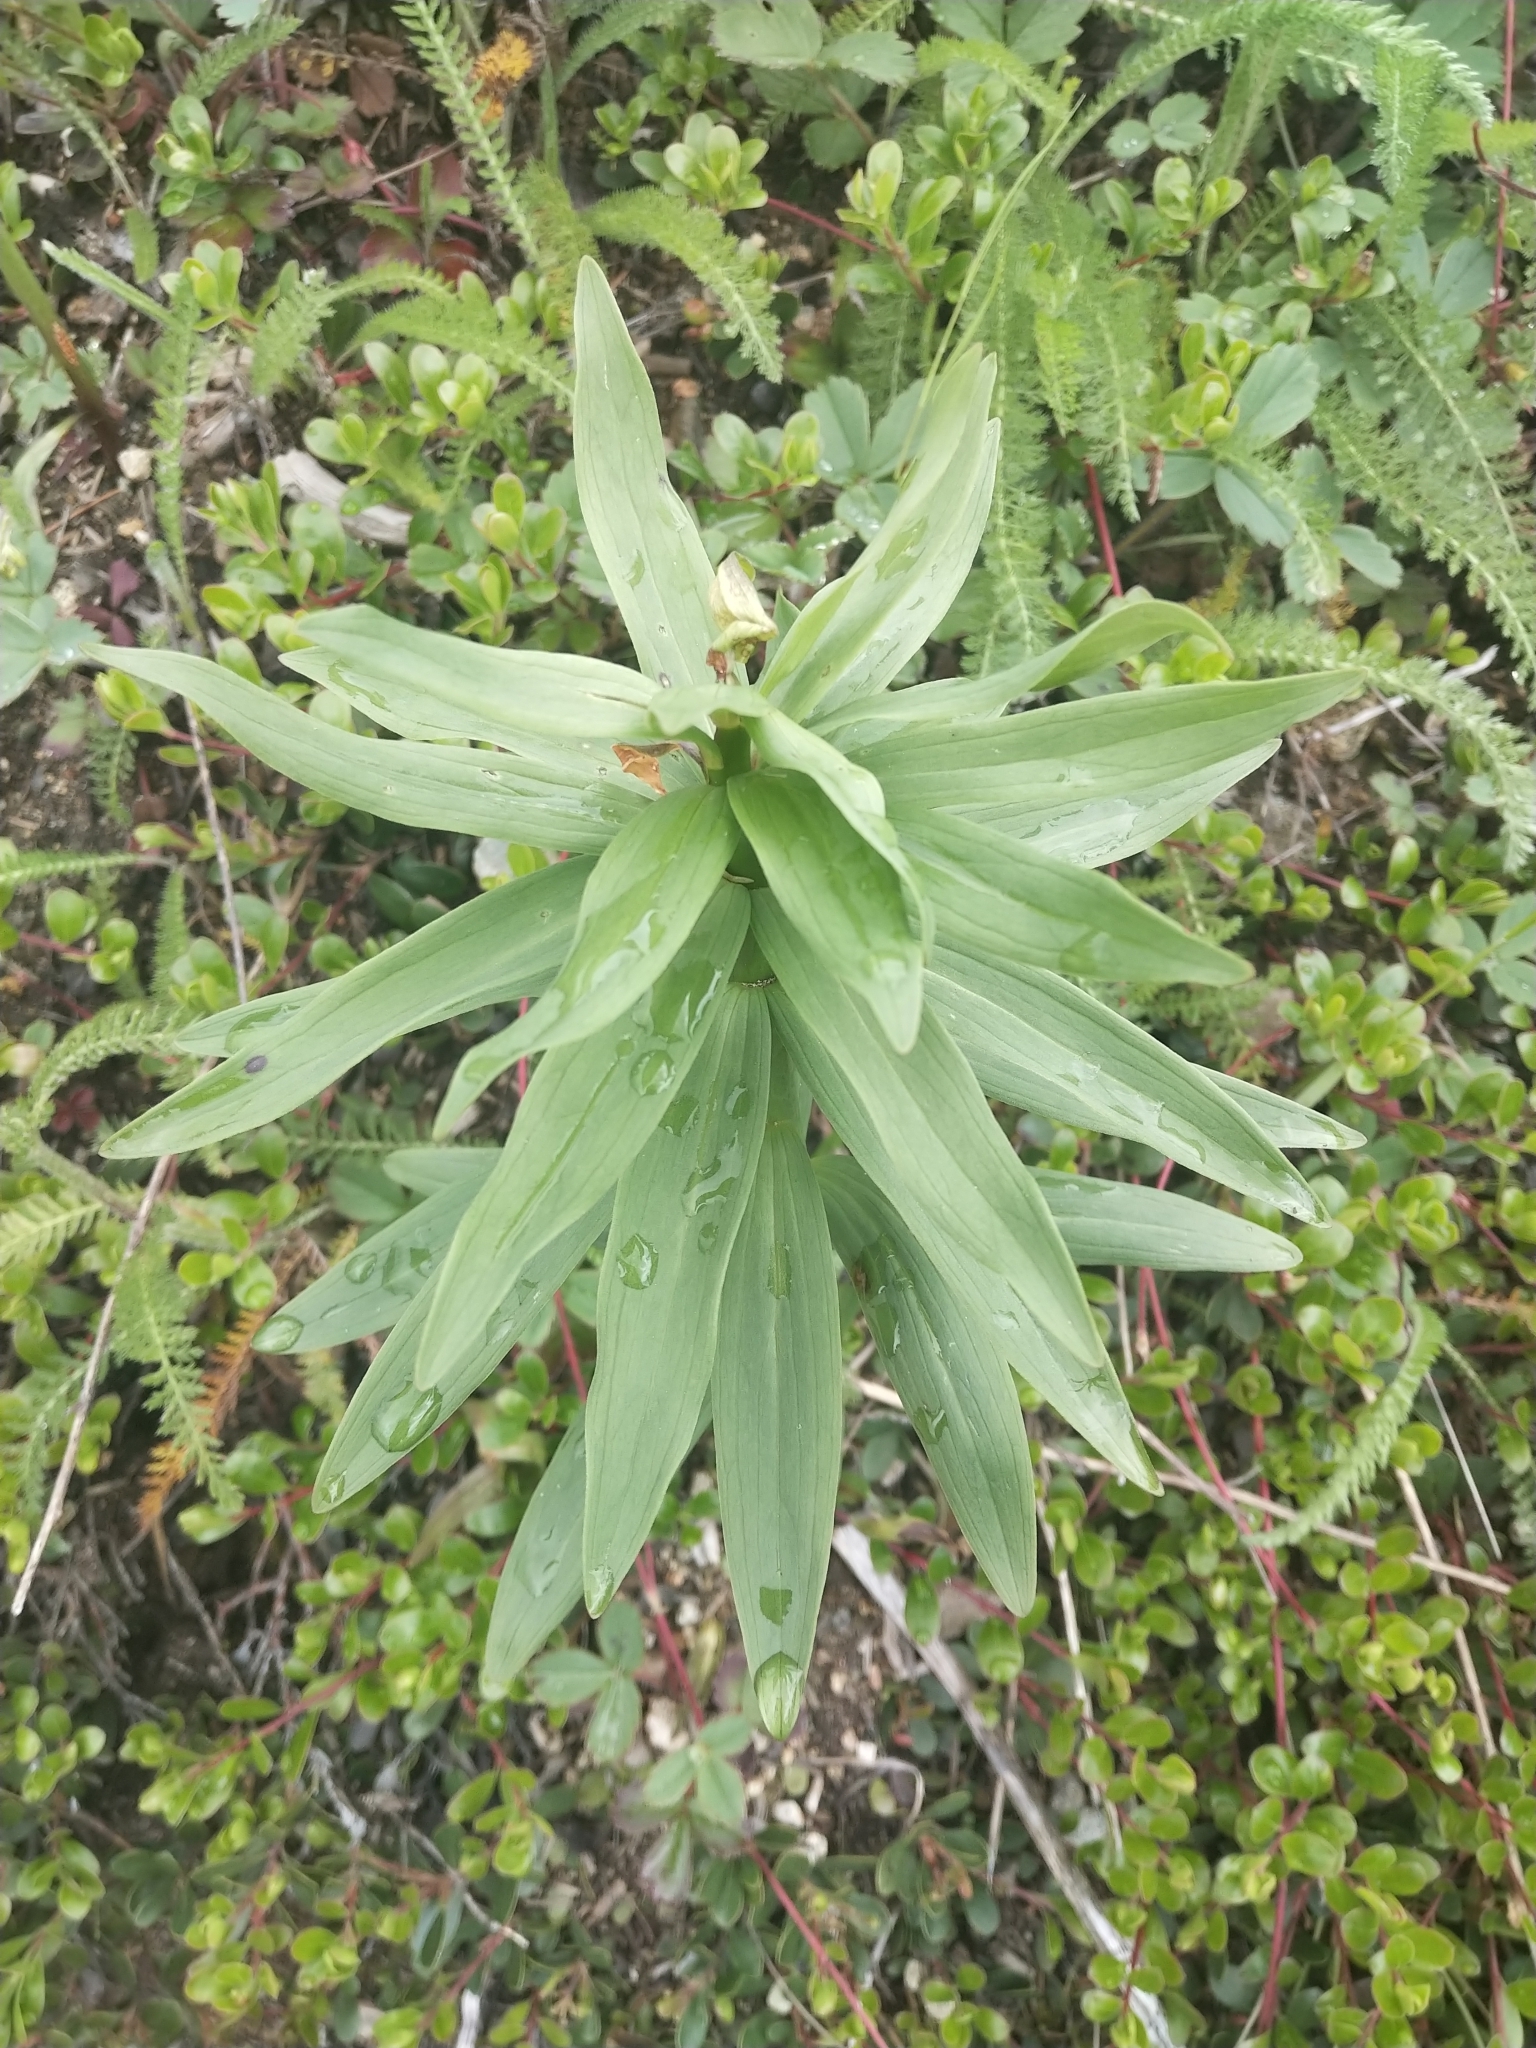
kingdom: Plantae
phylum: Tracheophyta
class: Liliopsida
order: Liliales
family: Liliaceae
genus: Lilium
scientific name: Lilium columbianum
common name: Columbia lily
